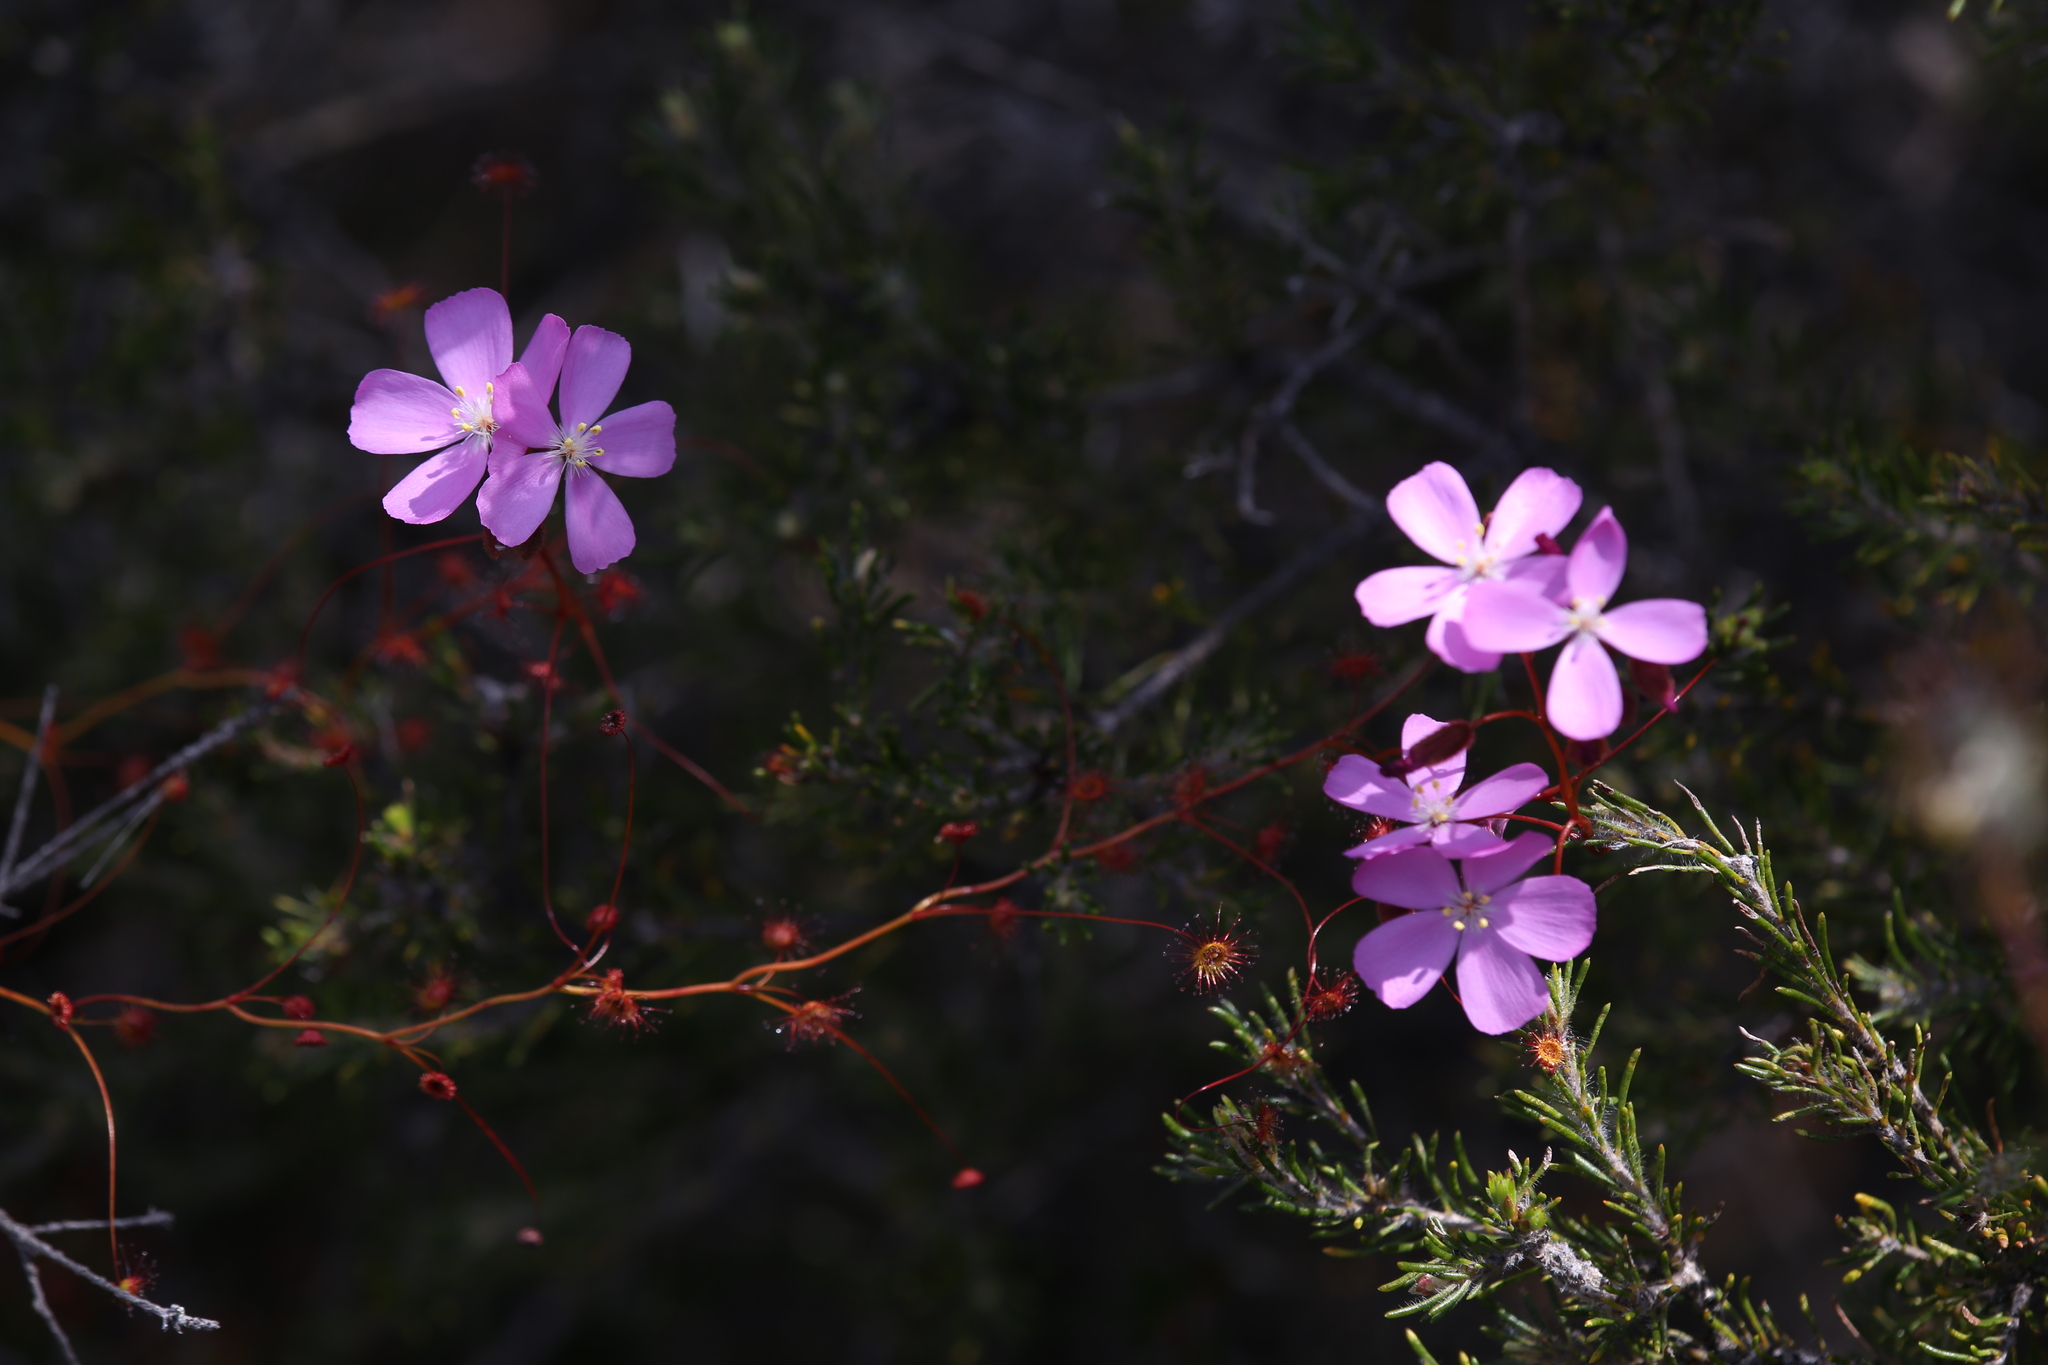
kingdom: Plantae
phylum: Tracheophyta
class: Magnoliopsida
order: Caryophyllales
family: Droseraceae
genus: Drosera
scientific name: Drosera
